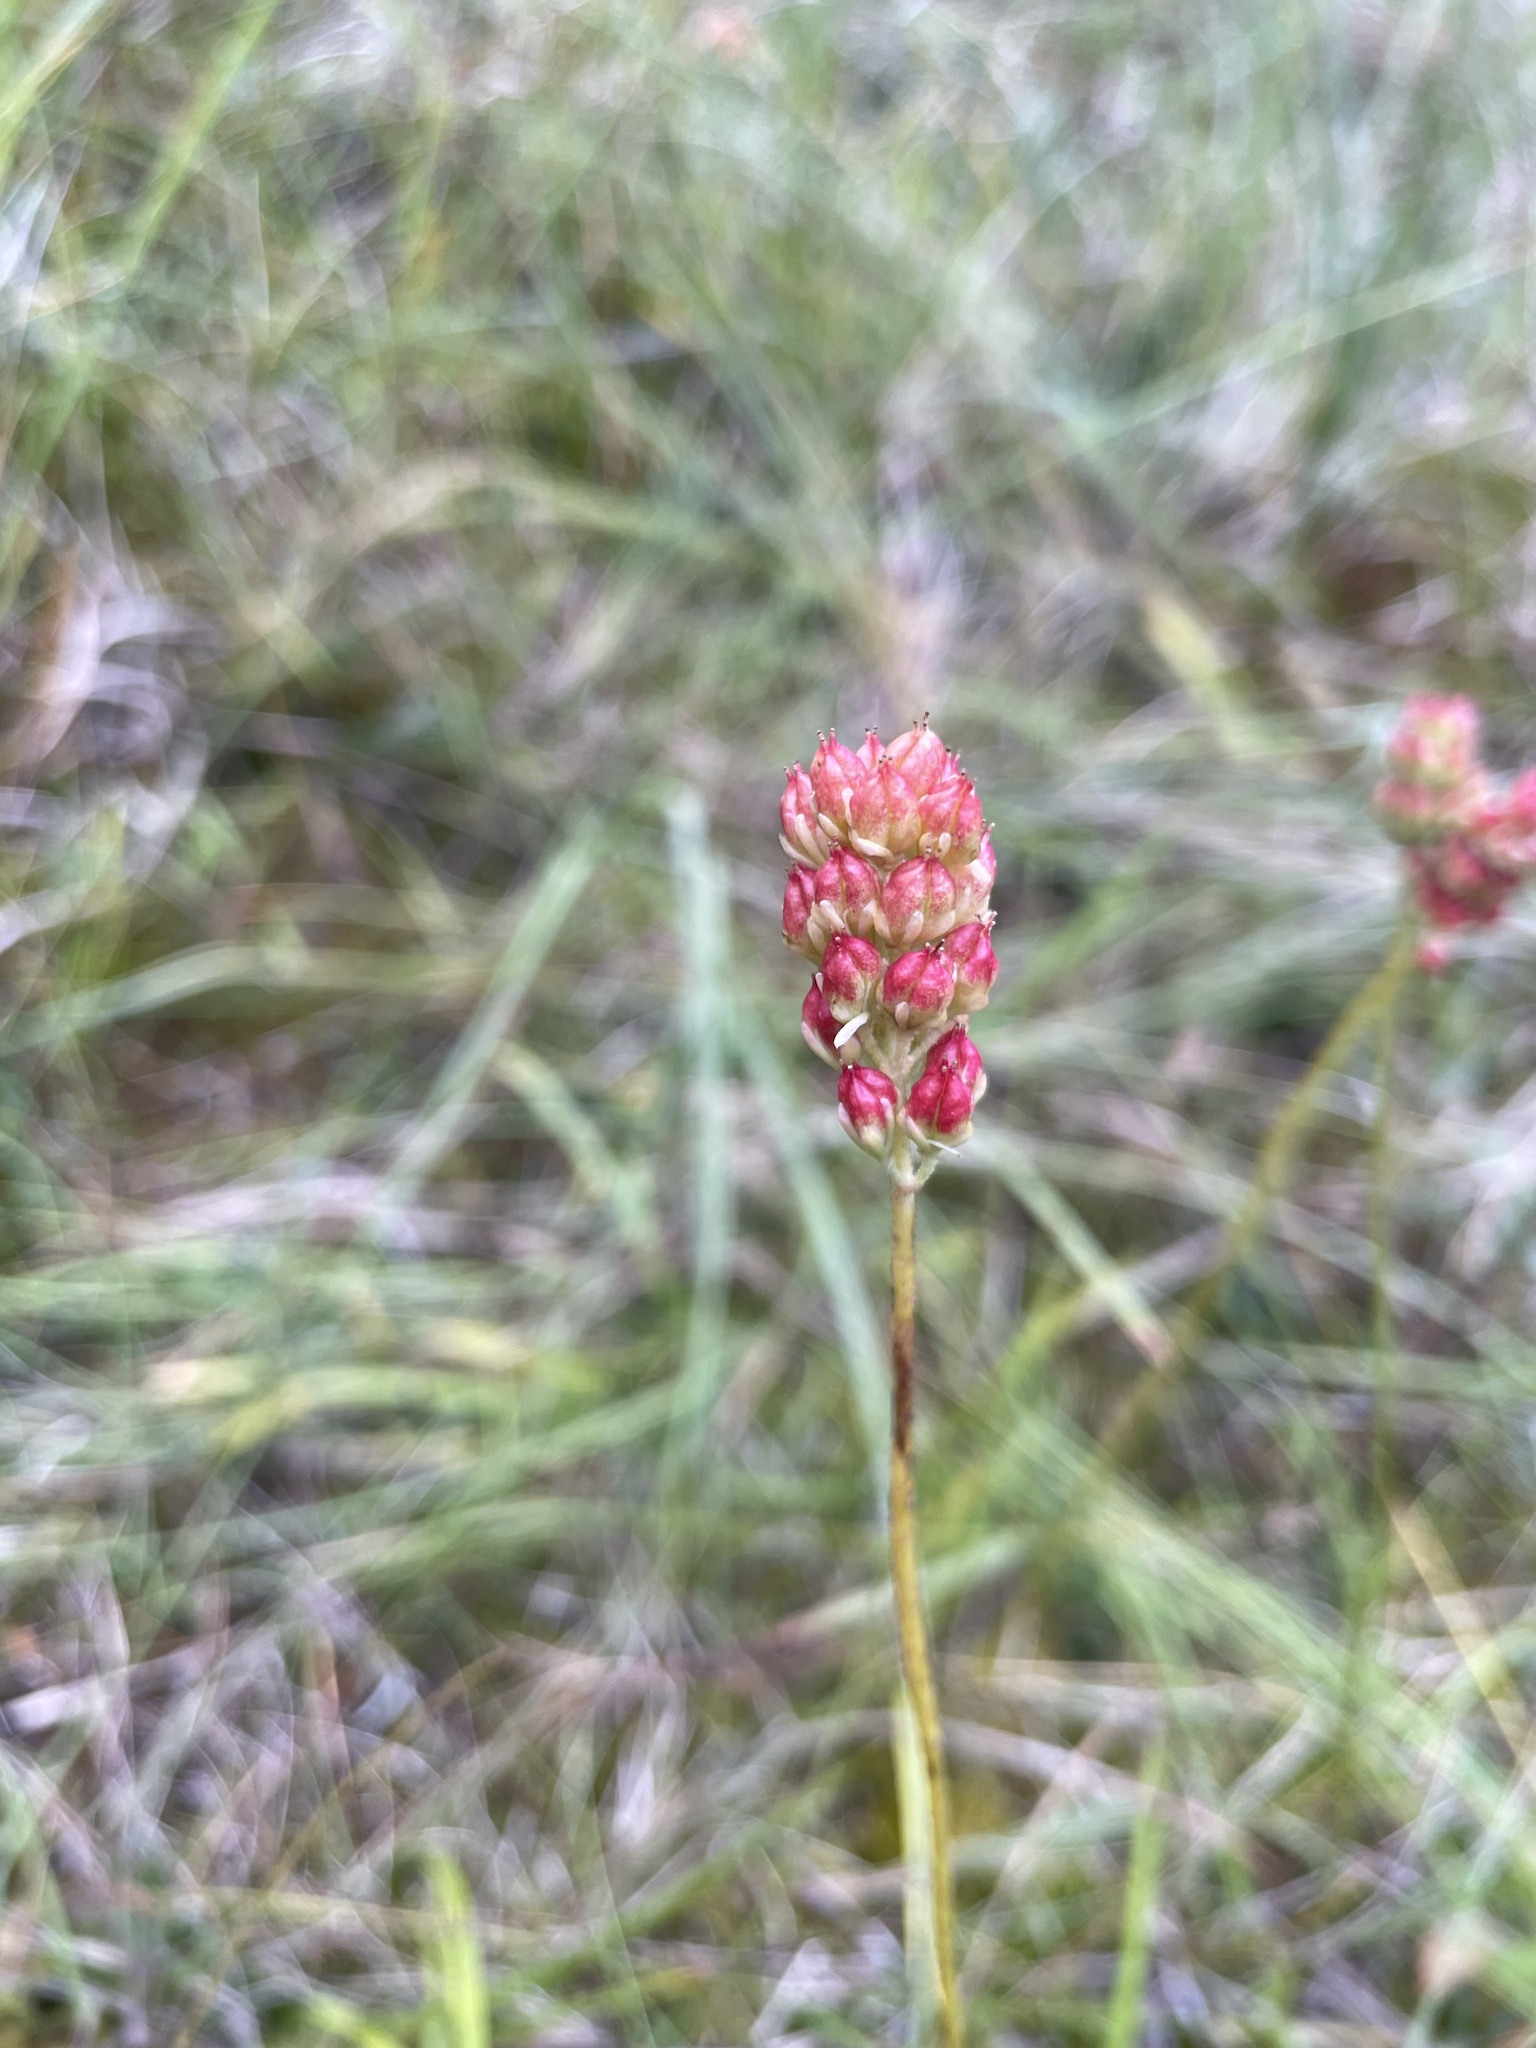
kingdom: Plantae
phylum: Tracheophyta
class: Liliopsida
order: Alismatales
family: Tofieldiaceae
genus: Triantha
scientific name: Triantha glutinosa
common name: Glutinous tofieldia
